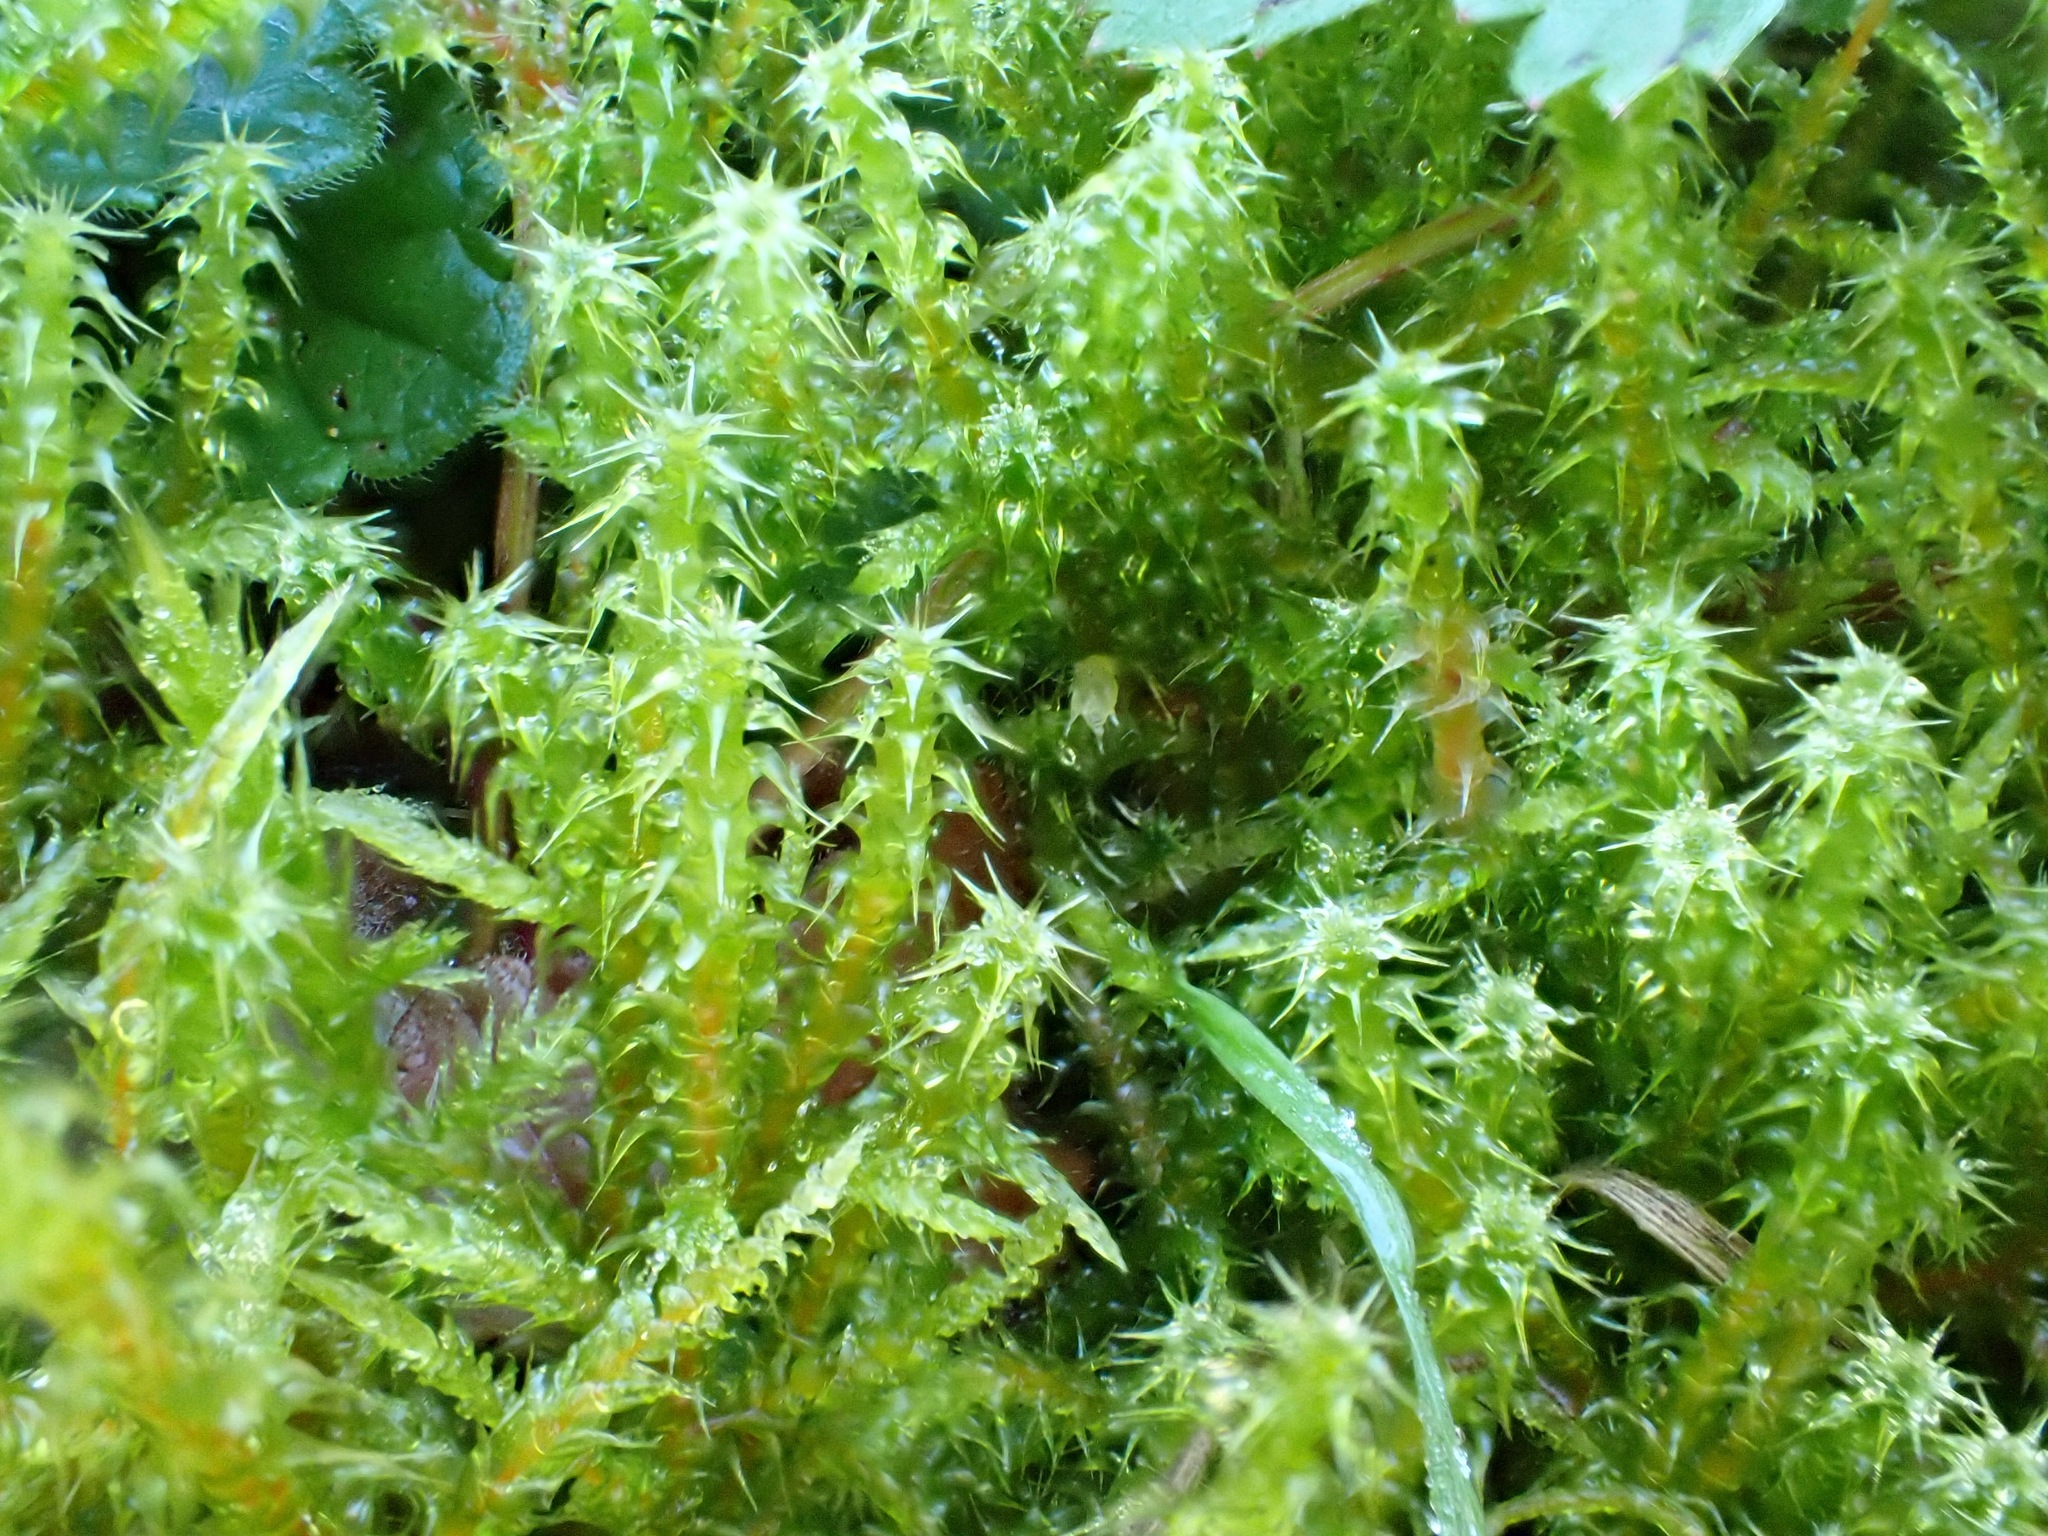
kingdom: Plantae
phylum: Bryophyta
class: Bryopsida
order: Hypnales
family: Hylocomiaceae
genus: Rhytidiadelphus
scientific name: Rhytidiadelphus squarrosus
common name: Springy turf-moss
